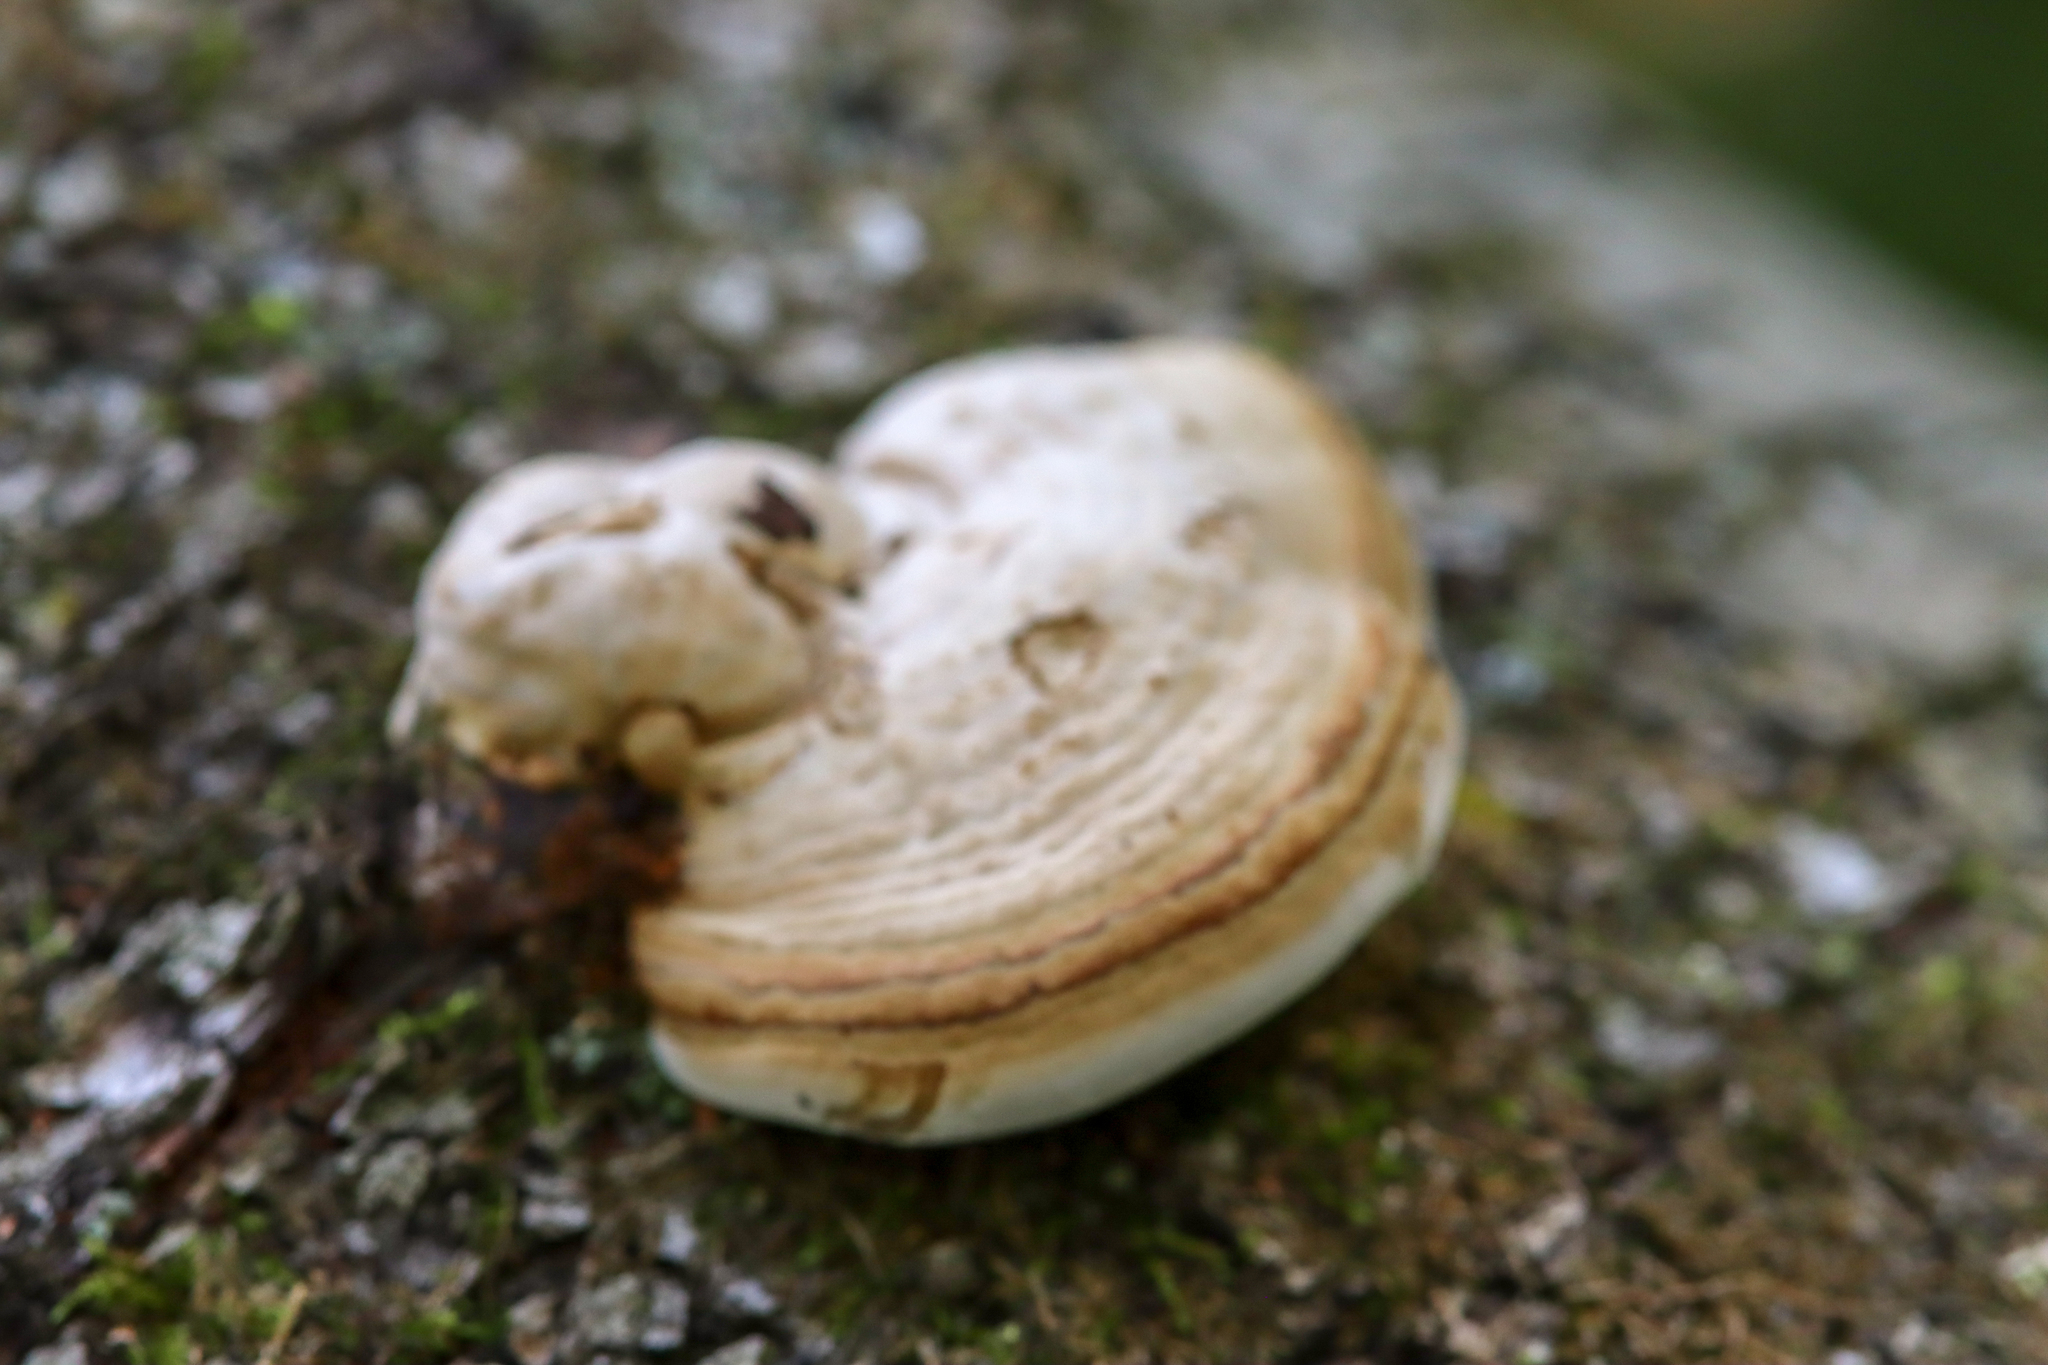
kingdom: Fungi
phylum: Basidiomycota
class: Agaricomycetes
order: Polyporales
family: Polyporaceae
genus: Fomes
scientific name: Fomes fomentarius
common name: Hoof fungus
